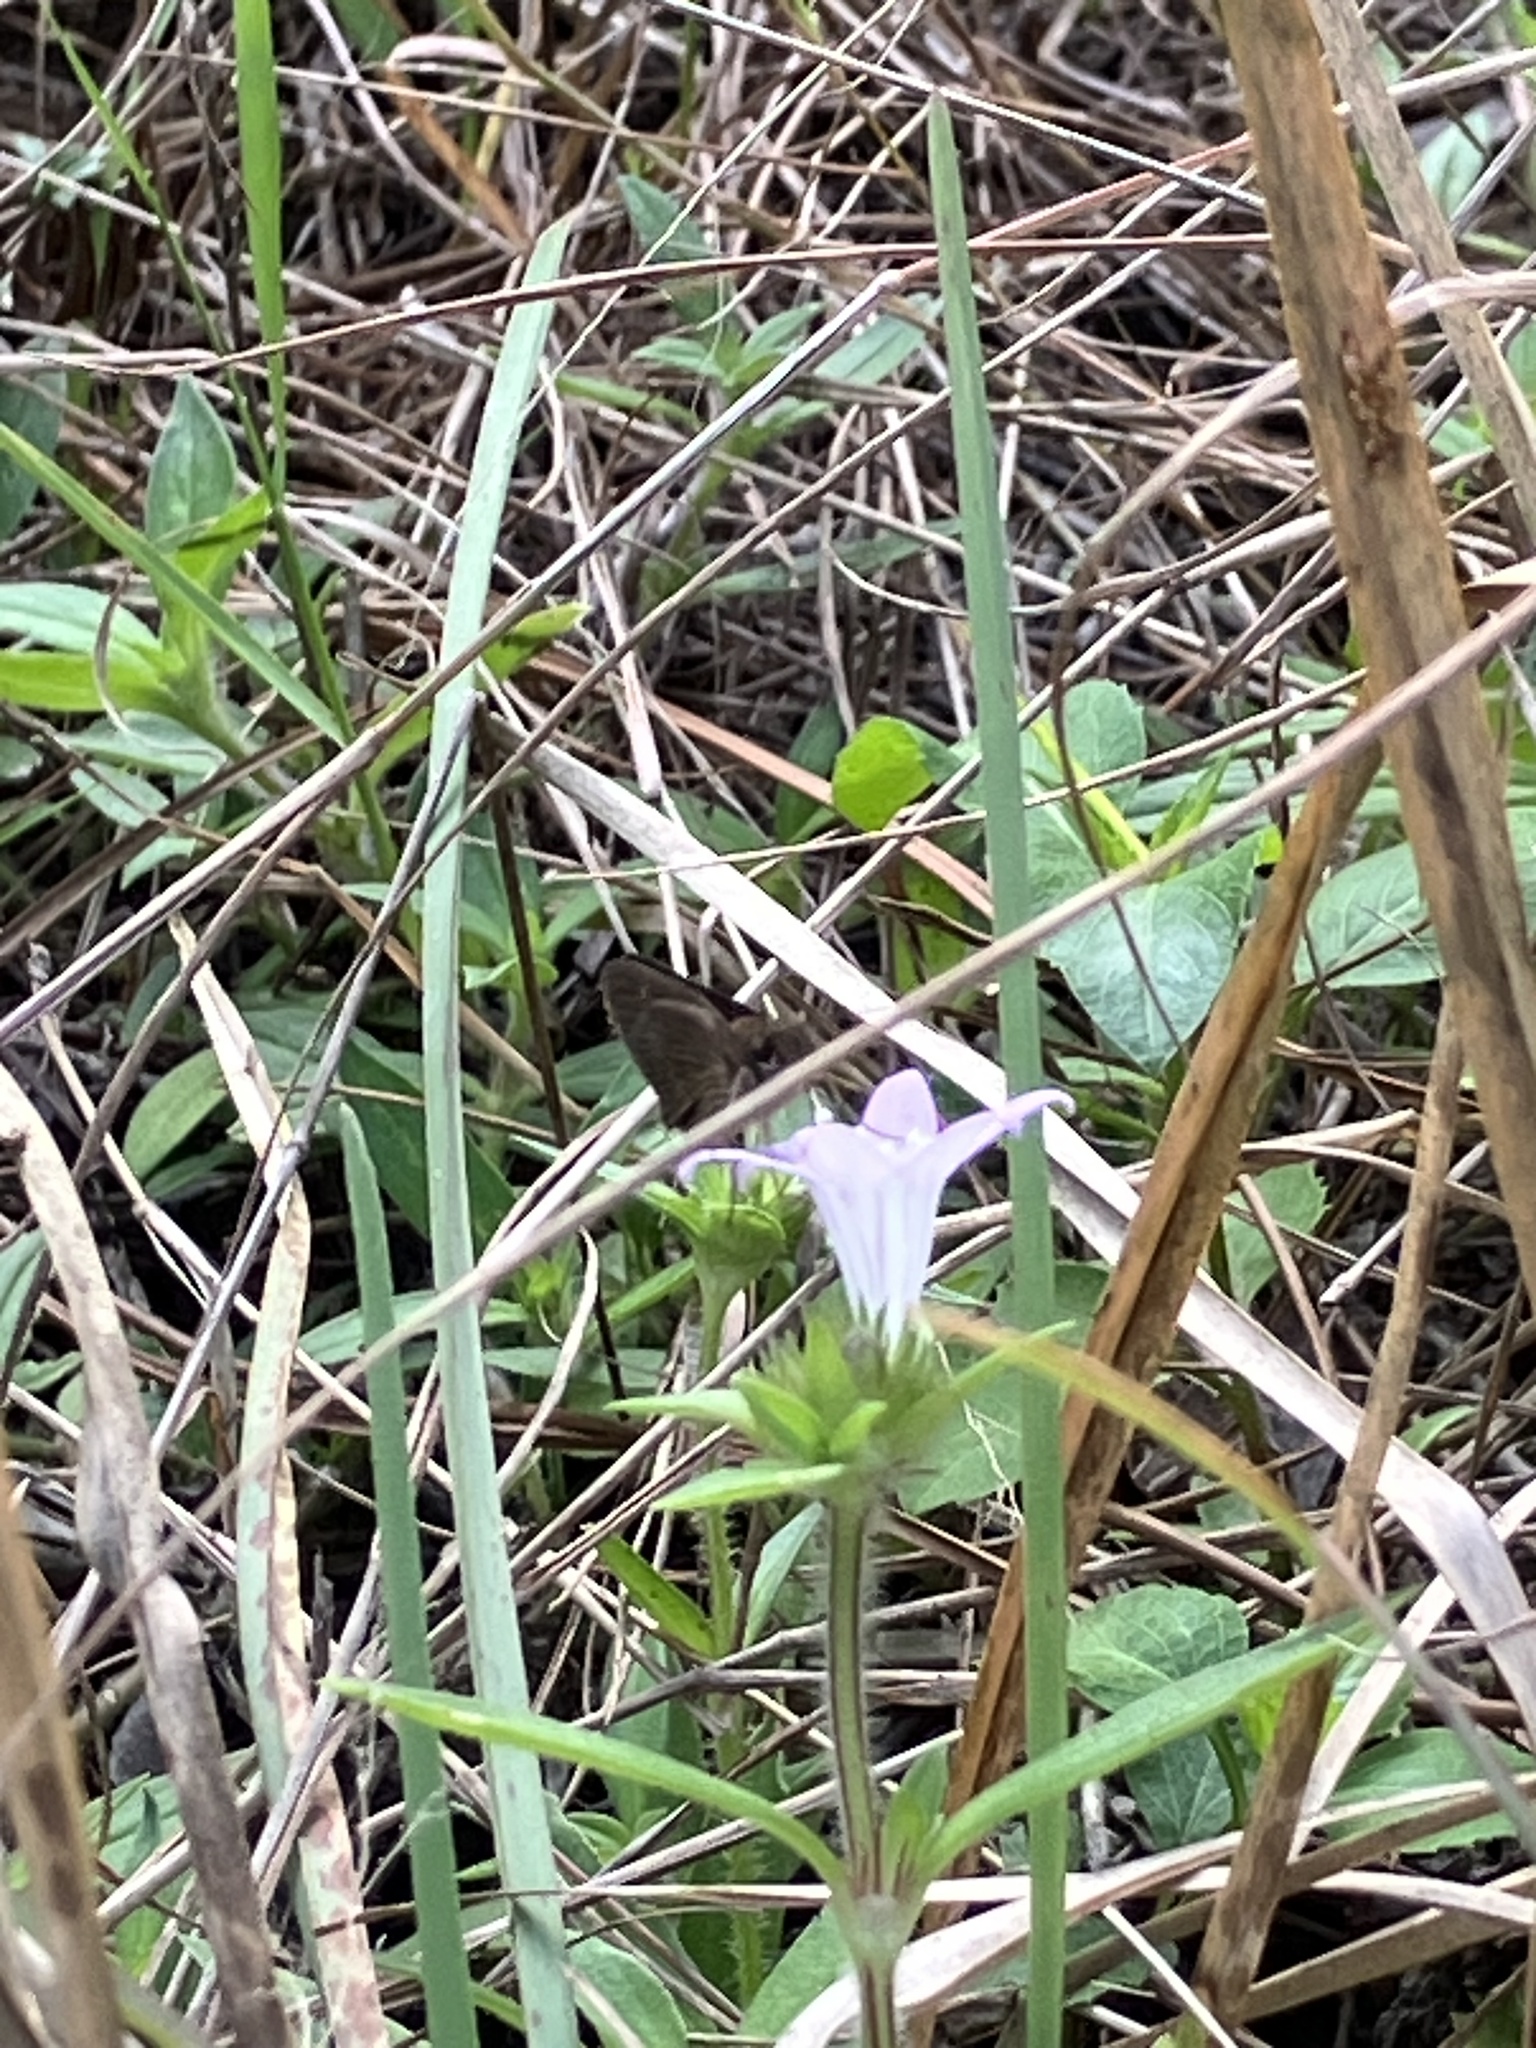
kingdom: Animalia
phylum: Arthropoda
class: Insecta
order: Lepidoptera
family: Hesperiidae
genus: Cymaenes
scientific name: Cymaenes tripunctus
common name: Dingy dotted skipper
